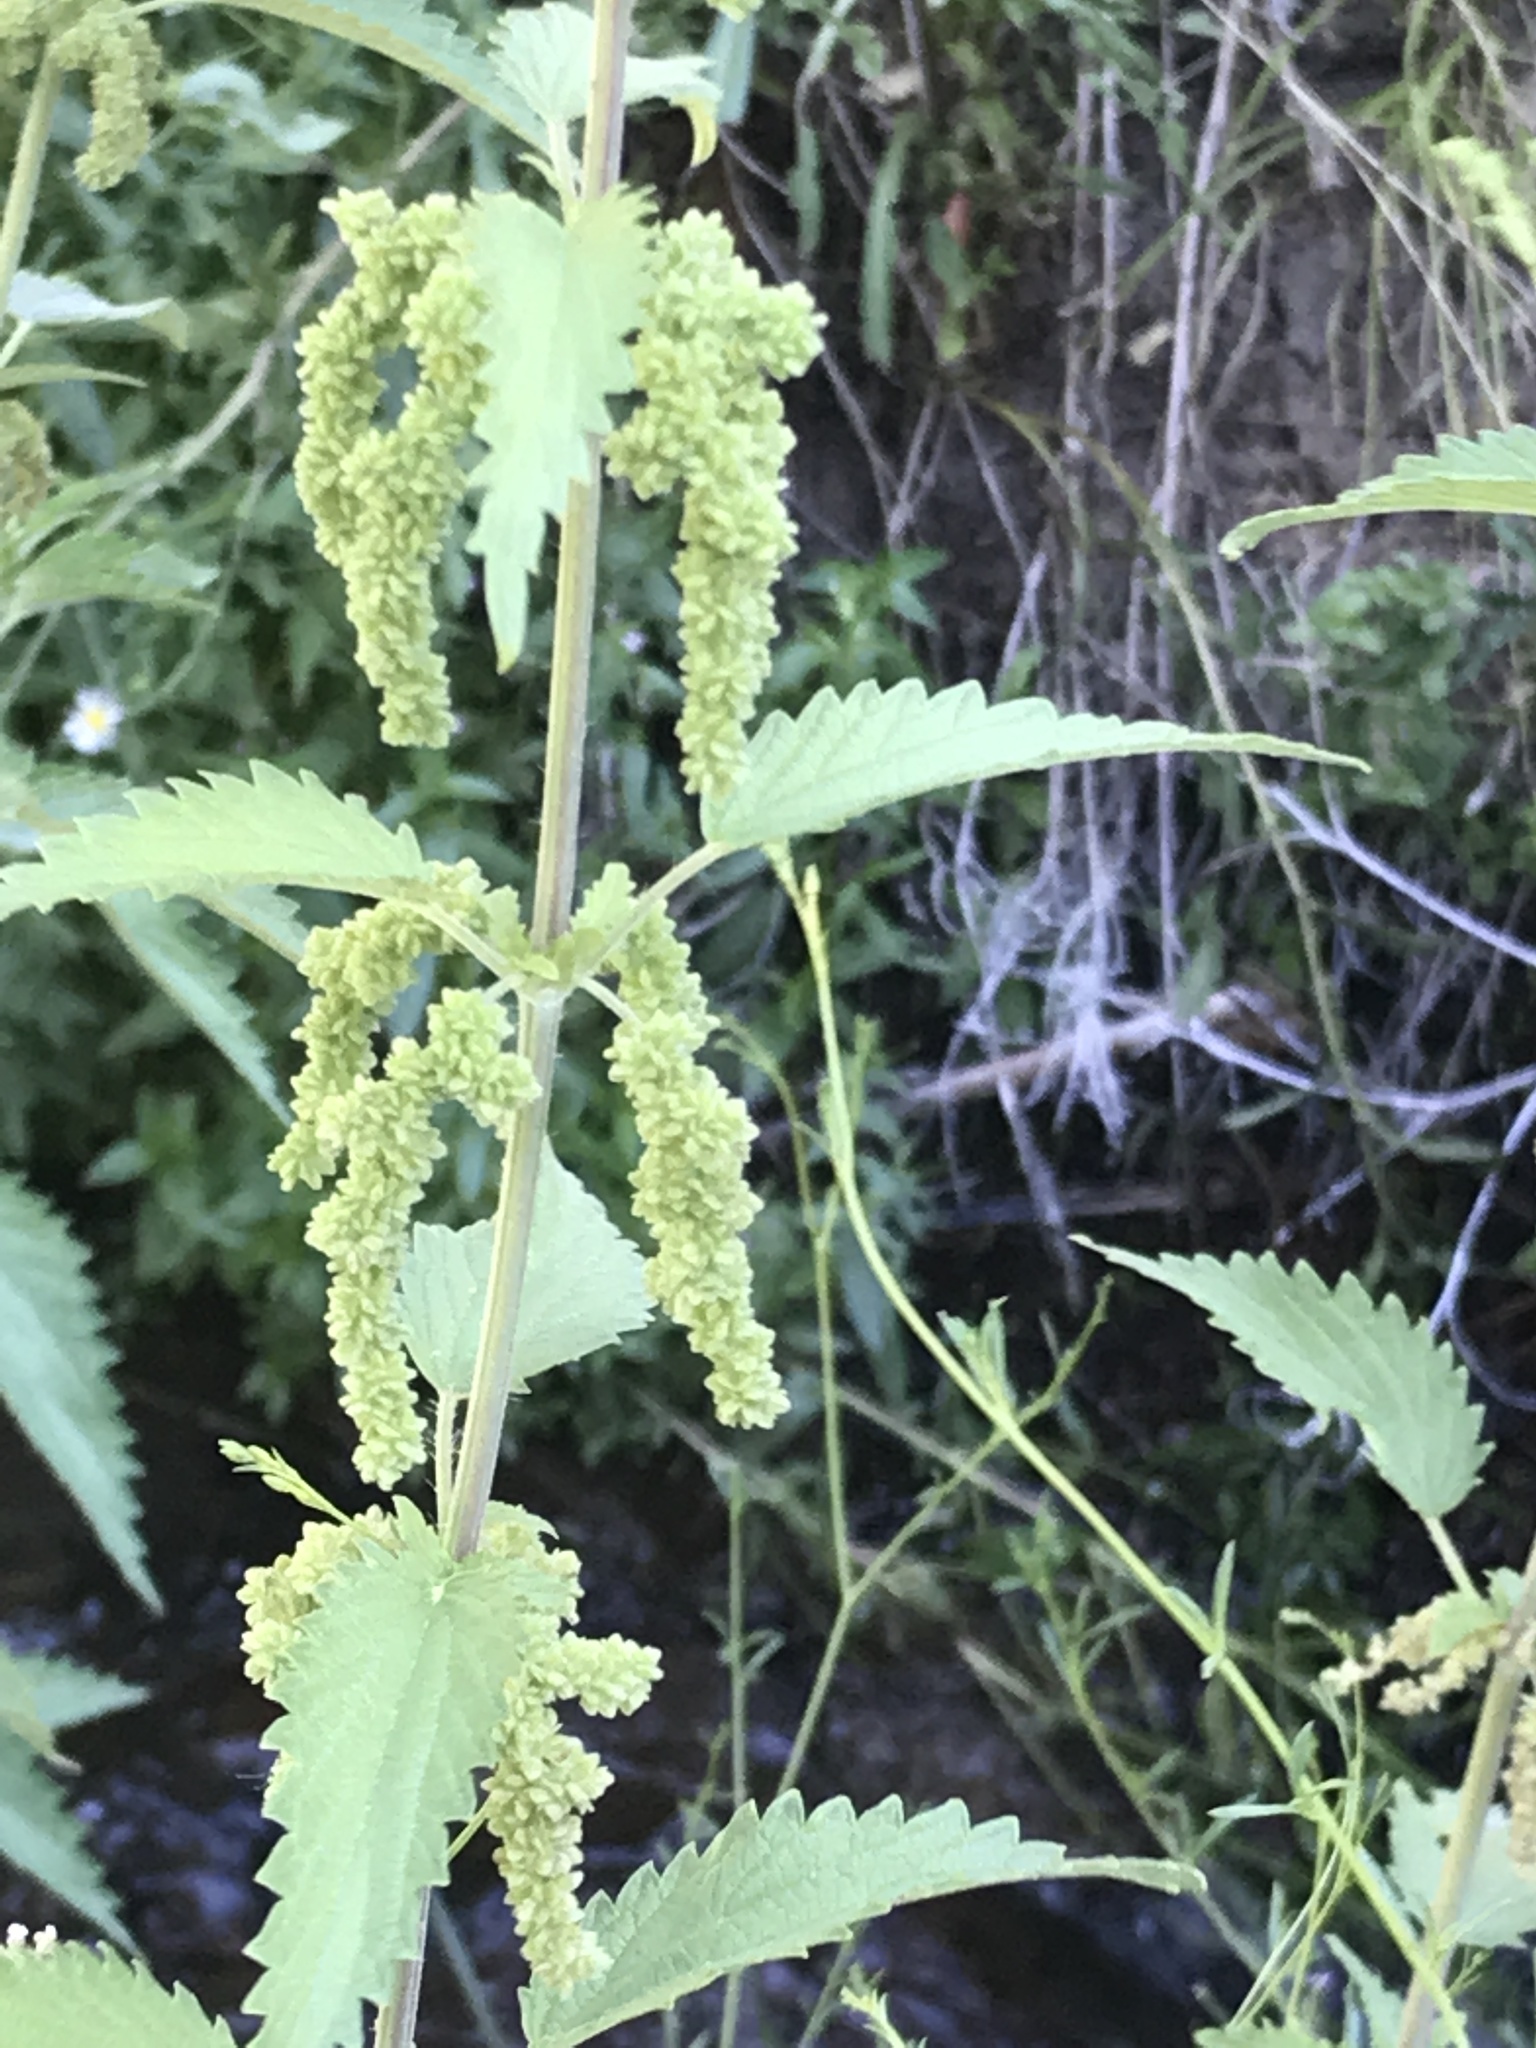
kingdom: Plantae
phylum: Tracheophyta
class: Magnoliopsida
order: Rosales
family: Urticaceae
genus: Urtica
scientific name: Urtica dioica
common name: Common nettle
